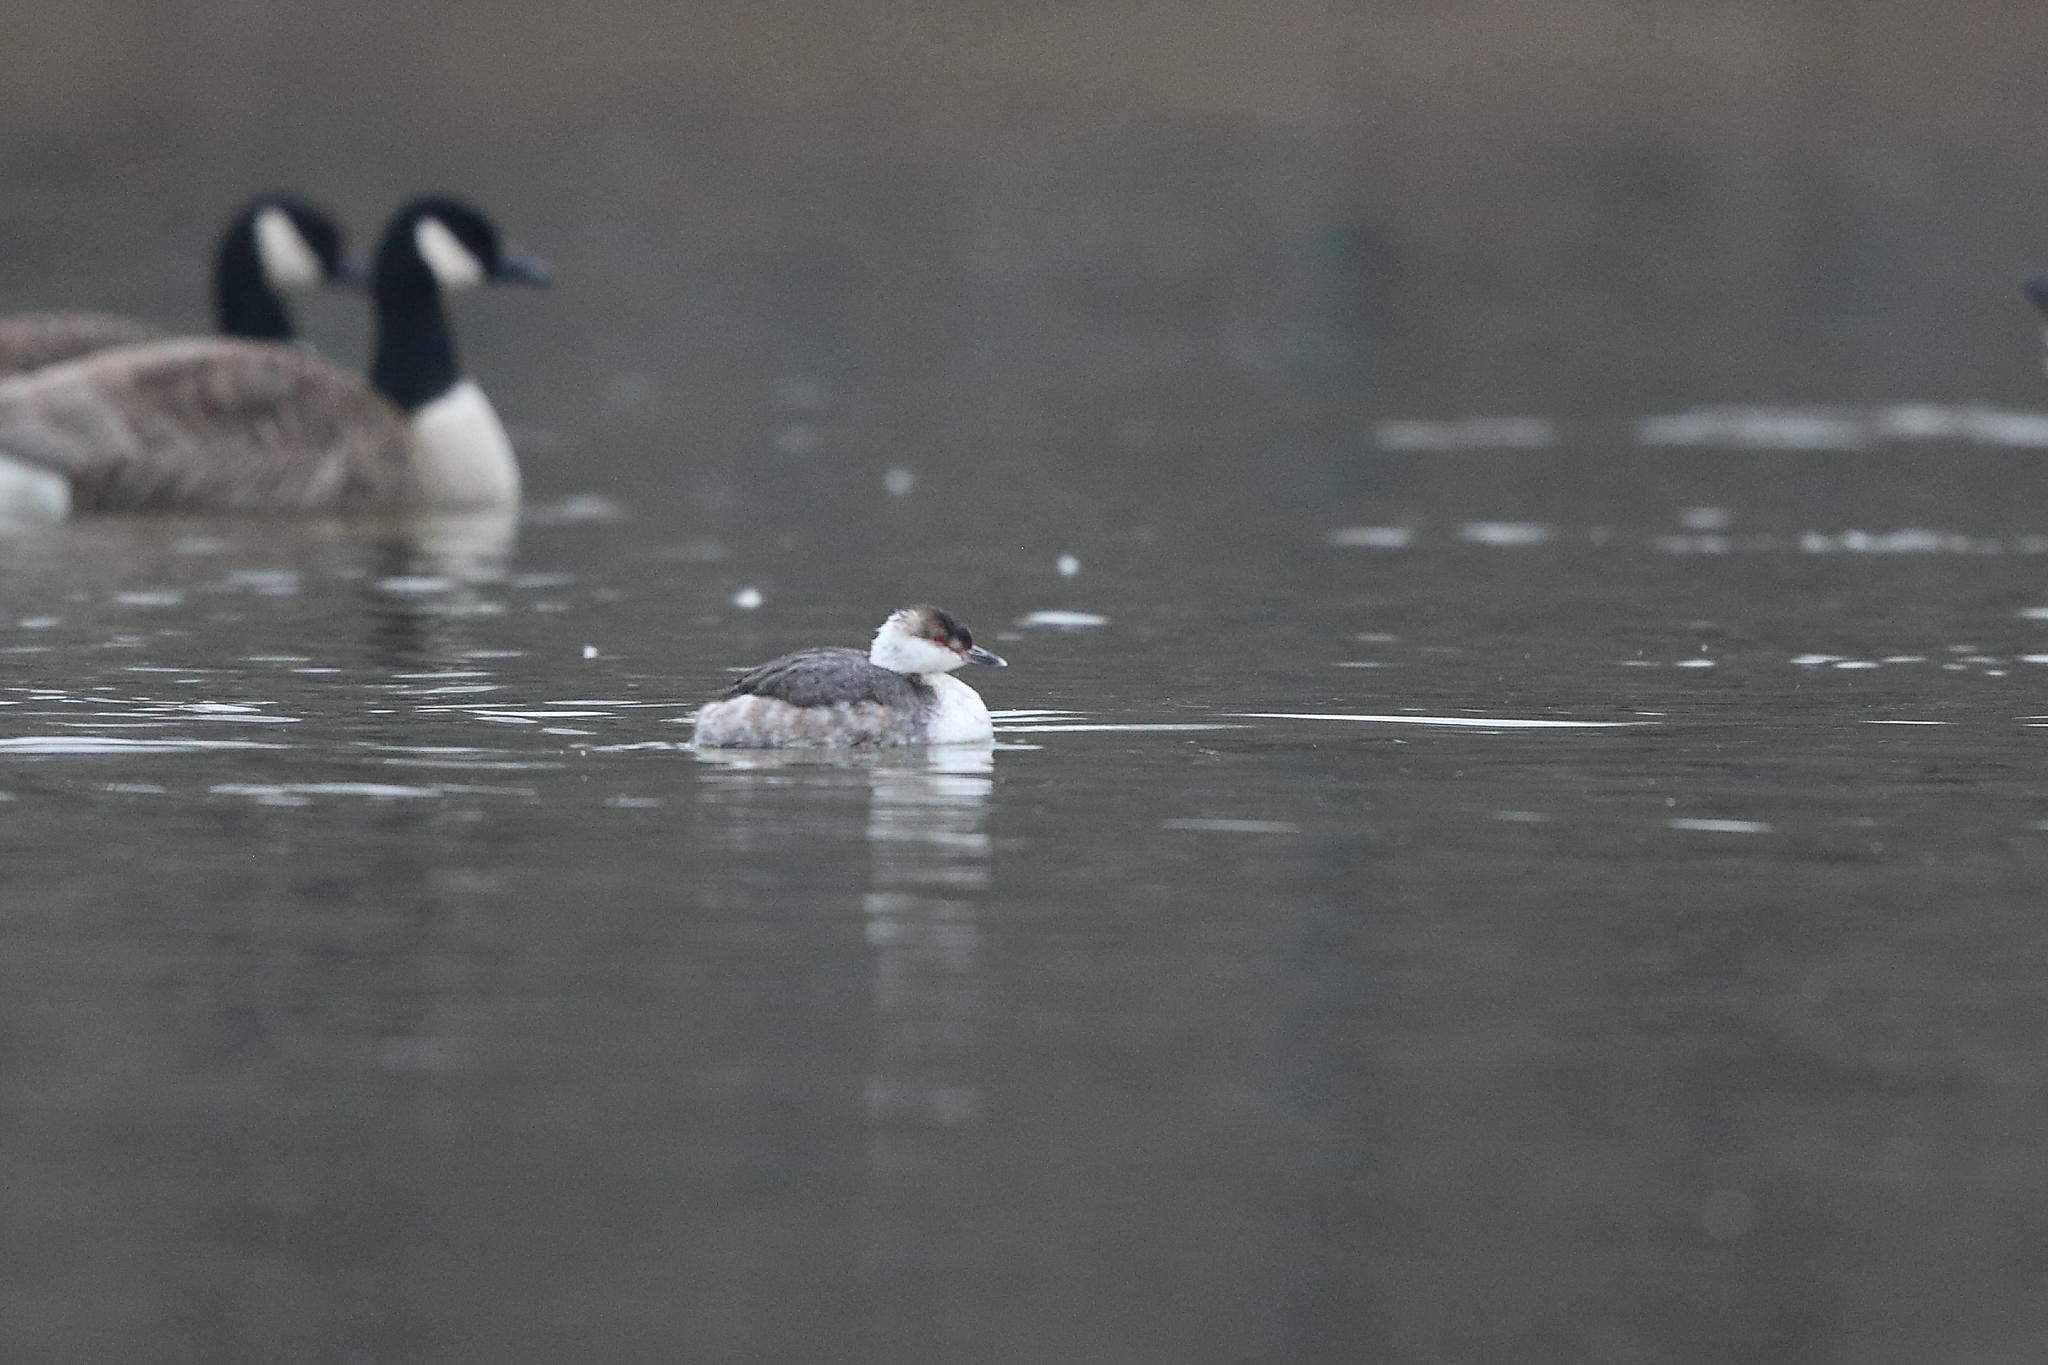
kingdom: Animalia
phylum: Chordata
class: Aves
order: Podicipediformes
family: Podicipedidae
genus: Podiceps
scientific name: Podiceps auritus
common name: Horned grebe
